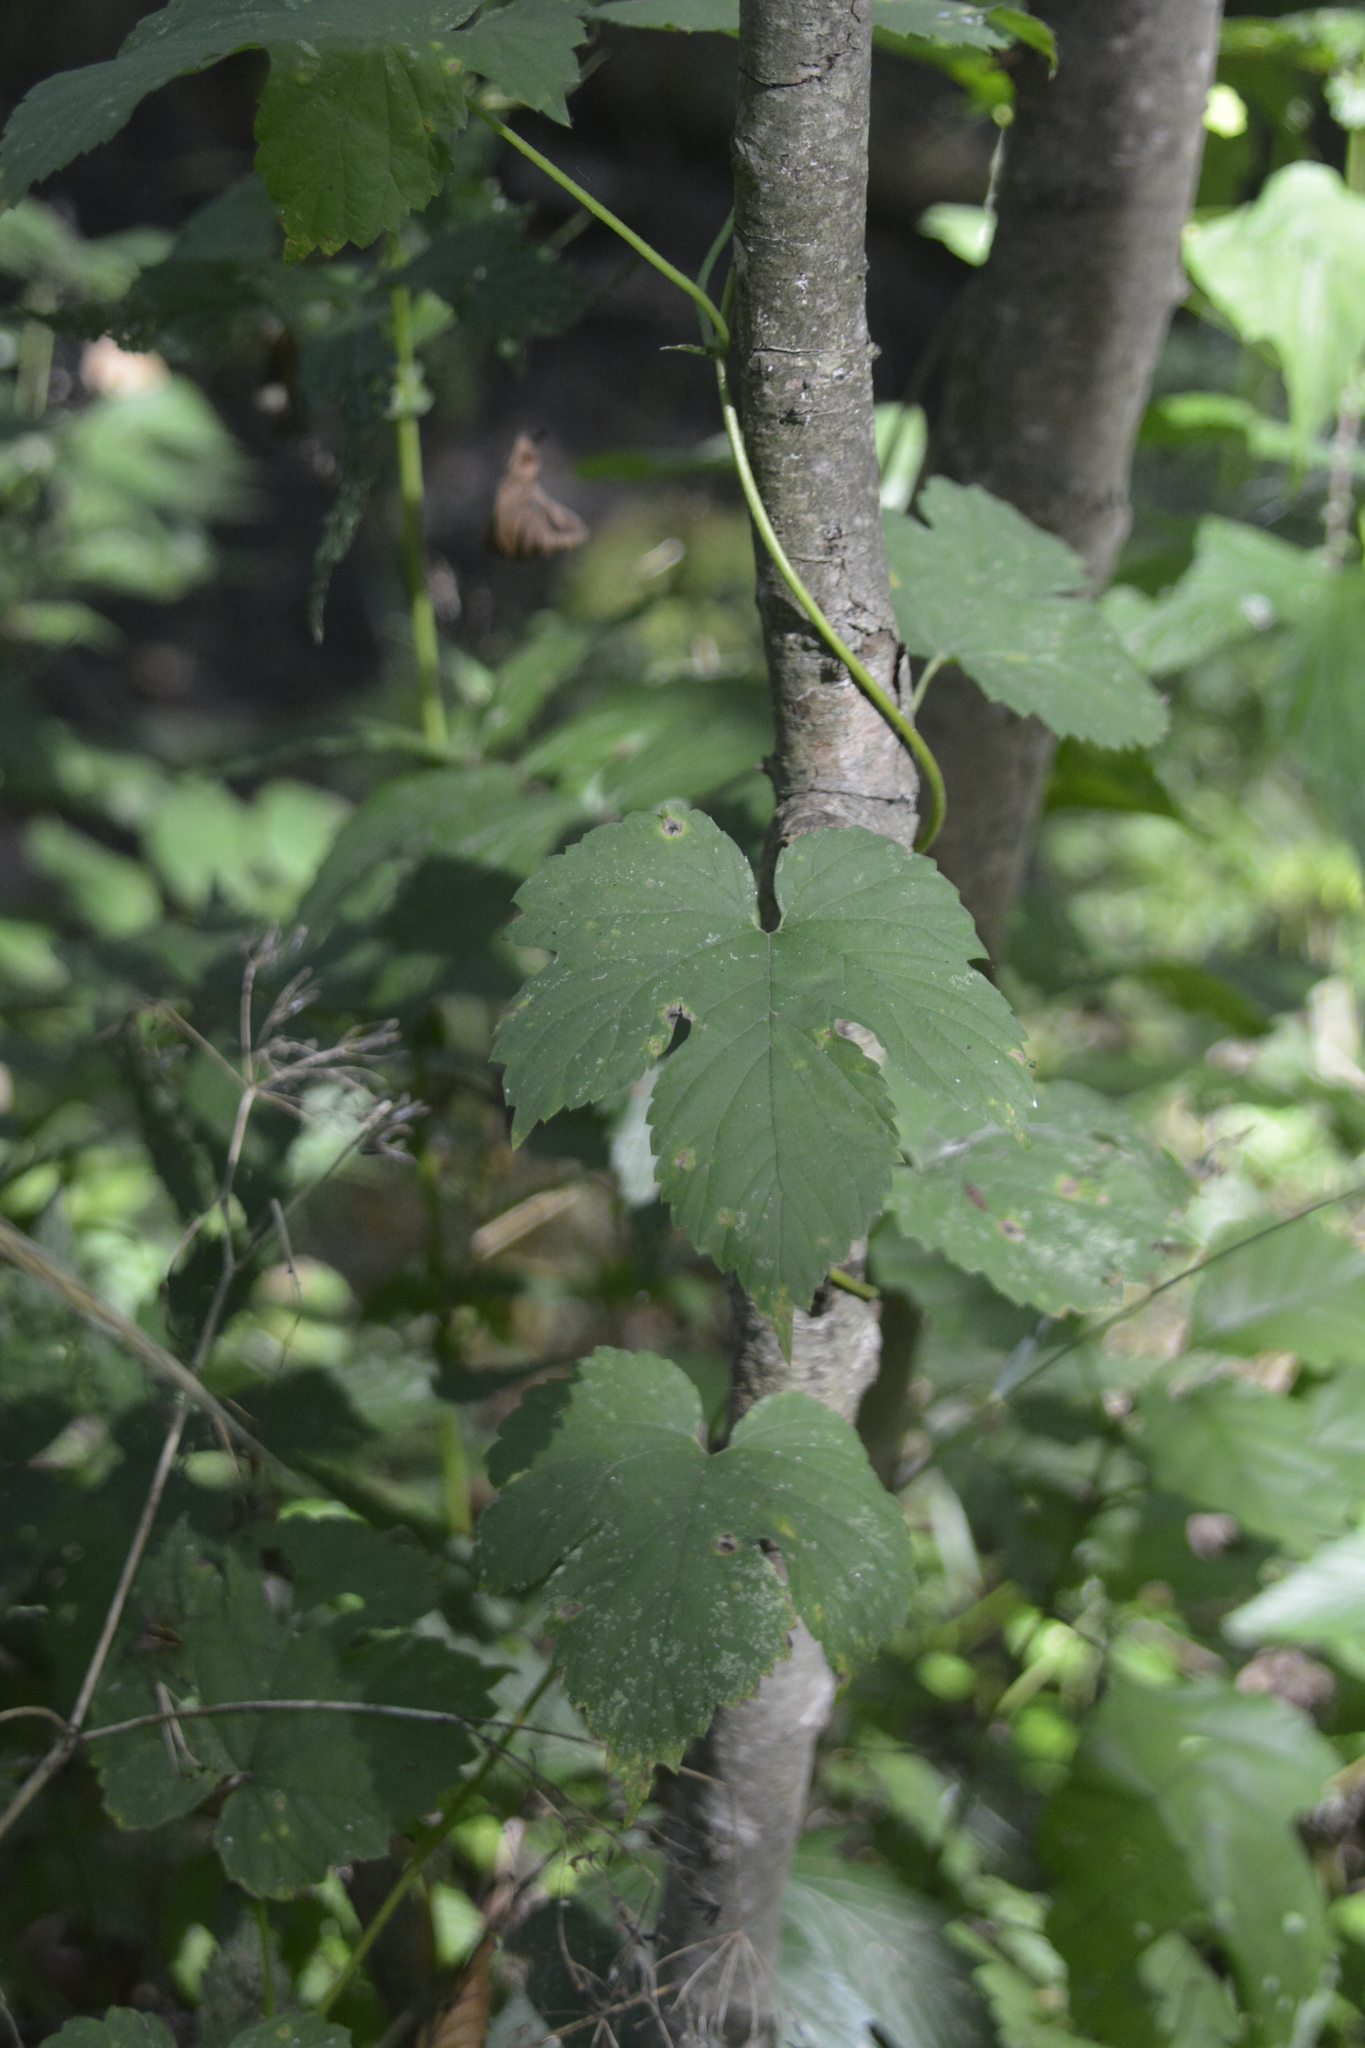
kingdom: Plantae
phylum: Tracheophyta
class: Magnoliopsida
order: Rosales
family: Cannabaceae
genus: Humulus
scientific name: Humulus lupulus
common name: Hop
